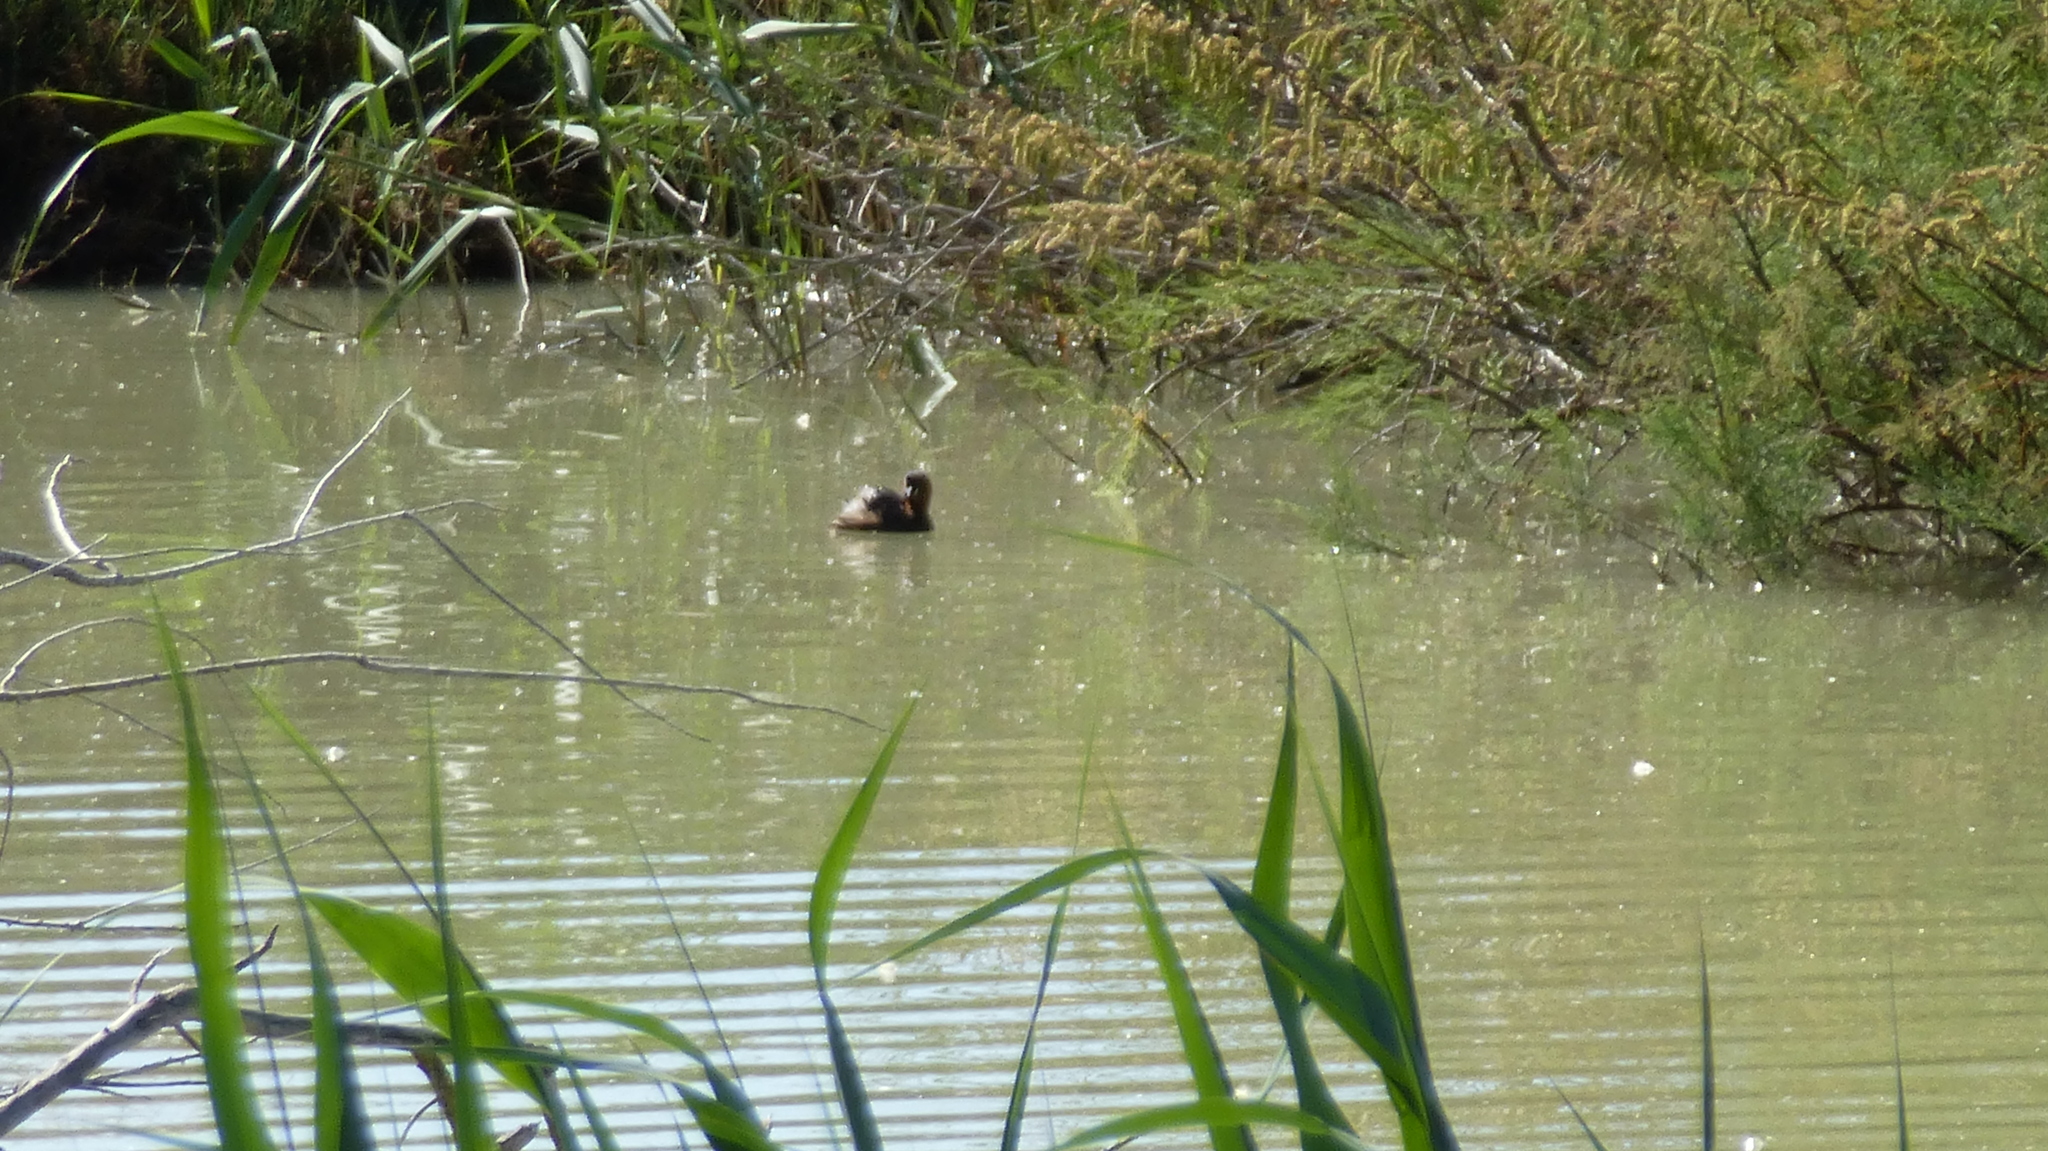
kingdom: Animalia
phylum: Chordata
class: Aves
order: Podicipediformes
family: Podicipedidae
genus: Tachybaptus
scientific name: Tachybaptus ruficollis
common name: Little grebe
